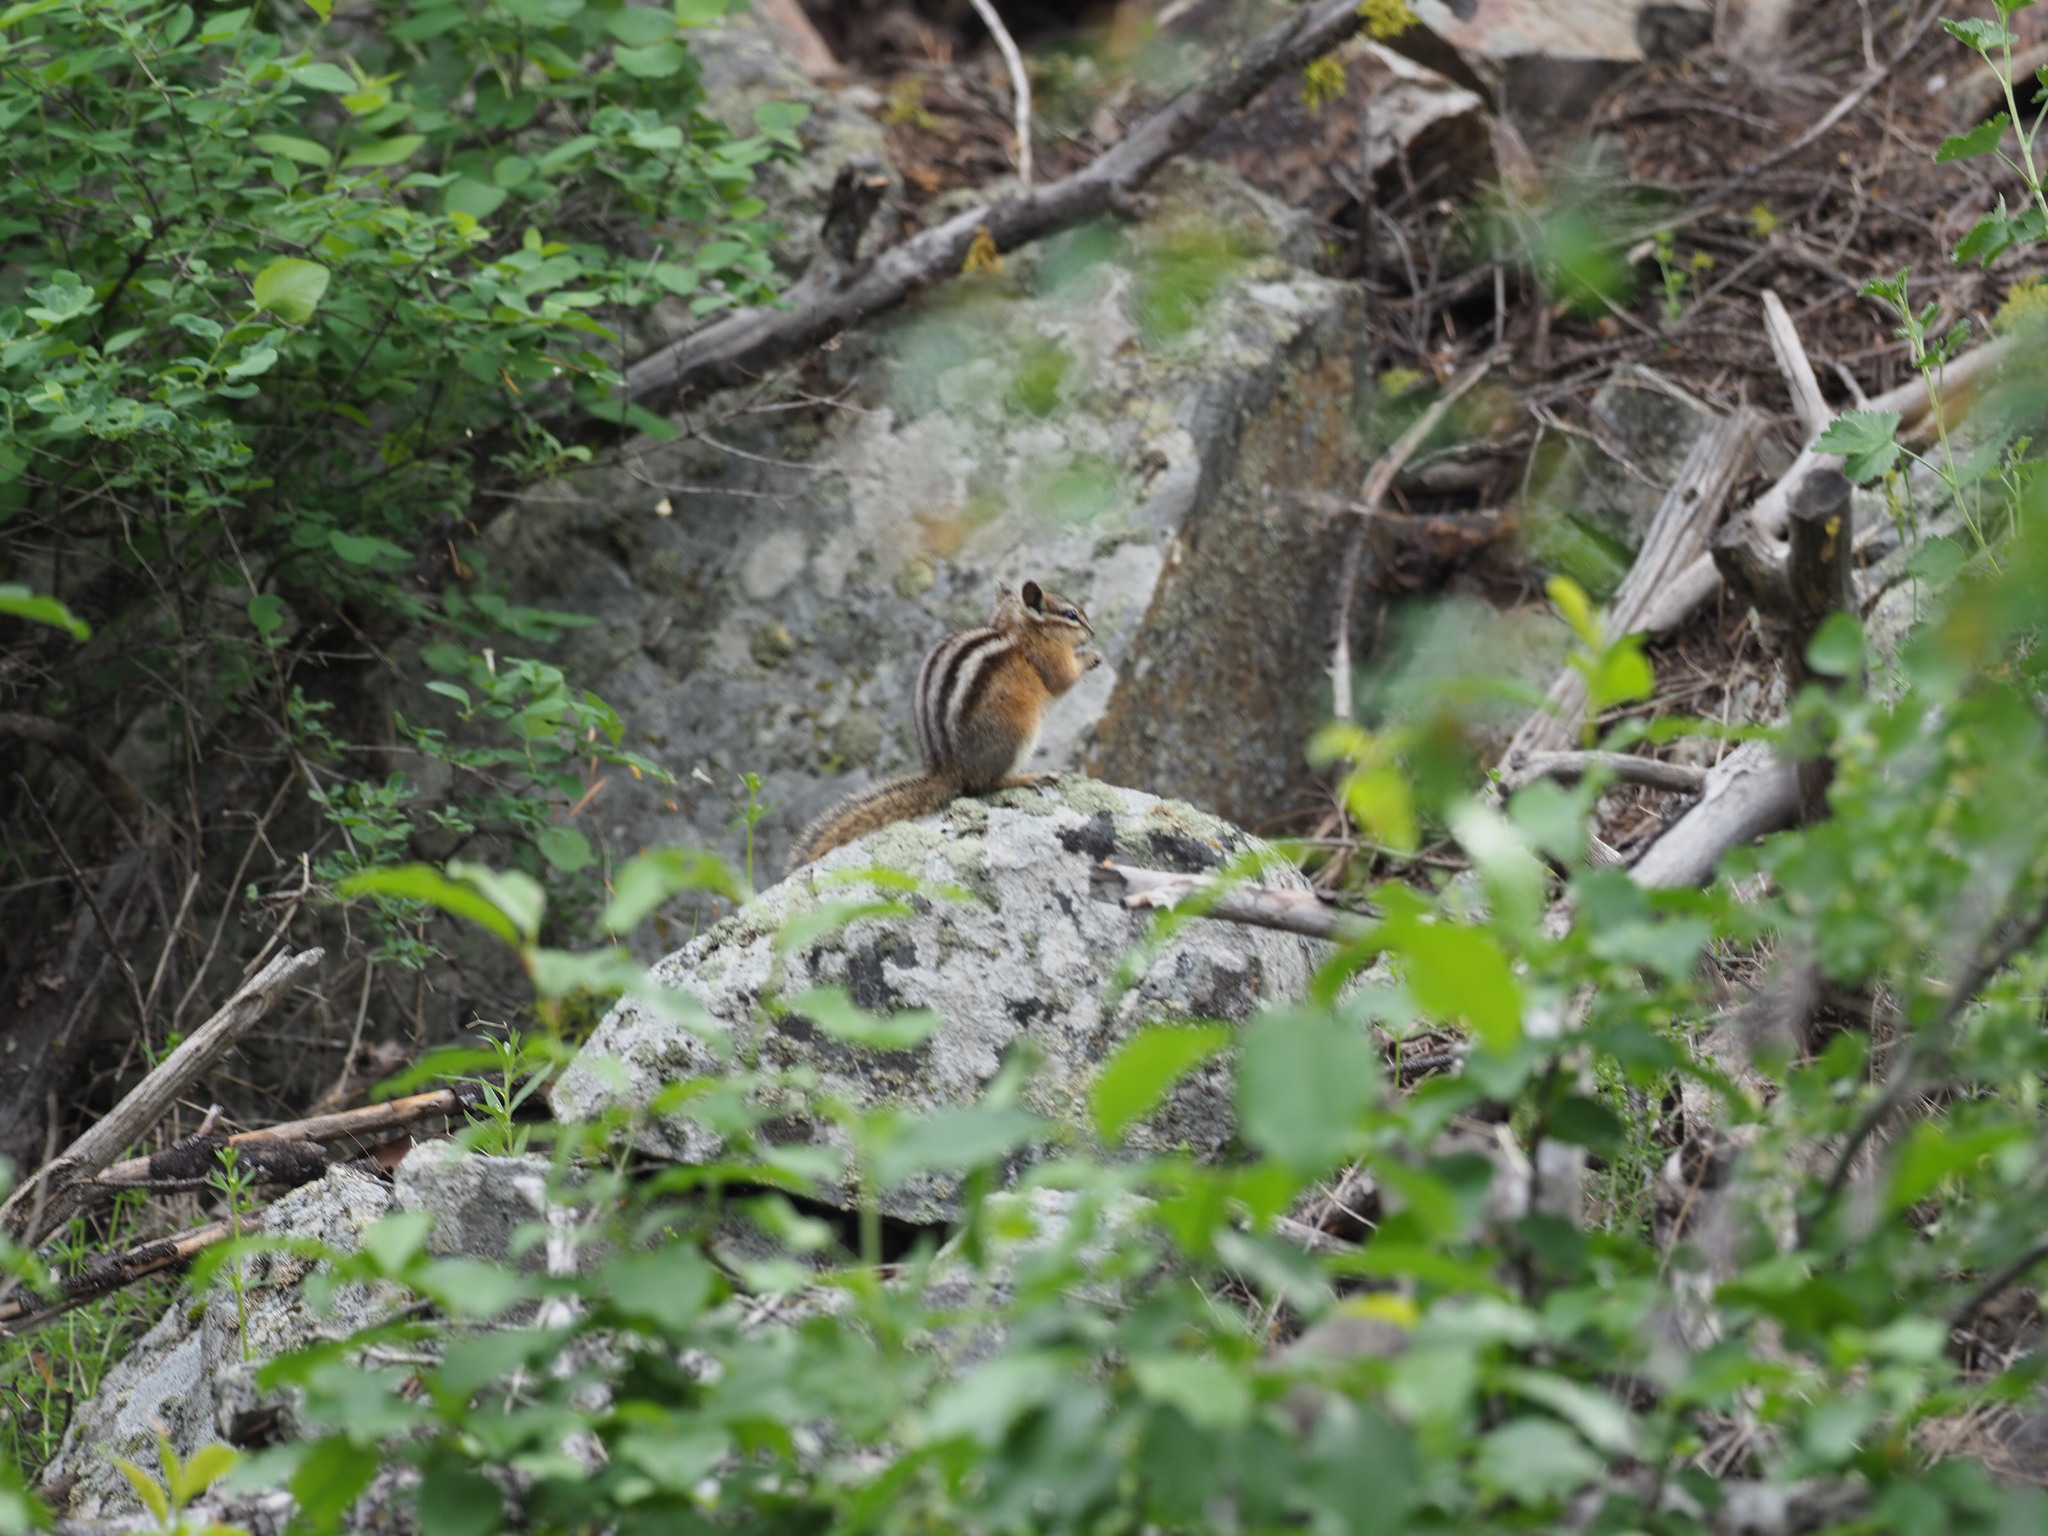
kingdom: Animalia
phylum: Chordata
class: Mammalia
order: Rodentia
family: Sciuridae
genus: Tamias
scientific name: Tamias amoenus
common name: Yellow-pine chipmunk
